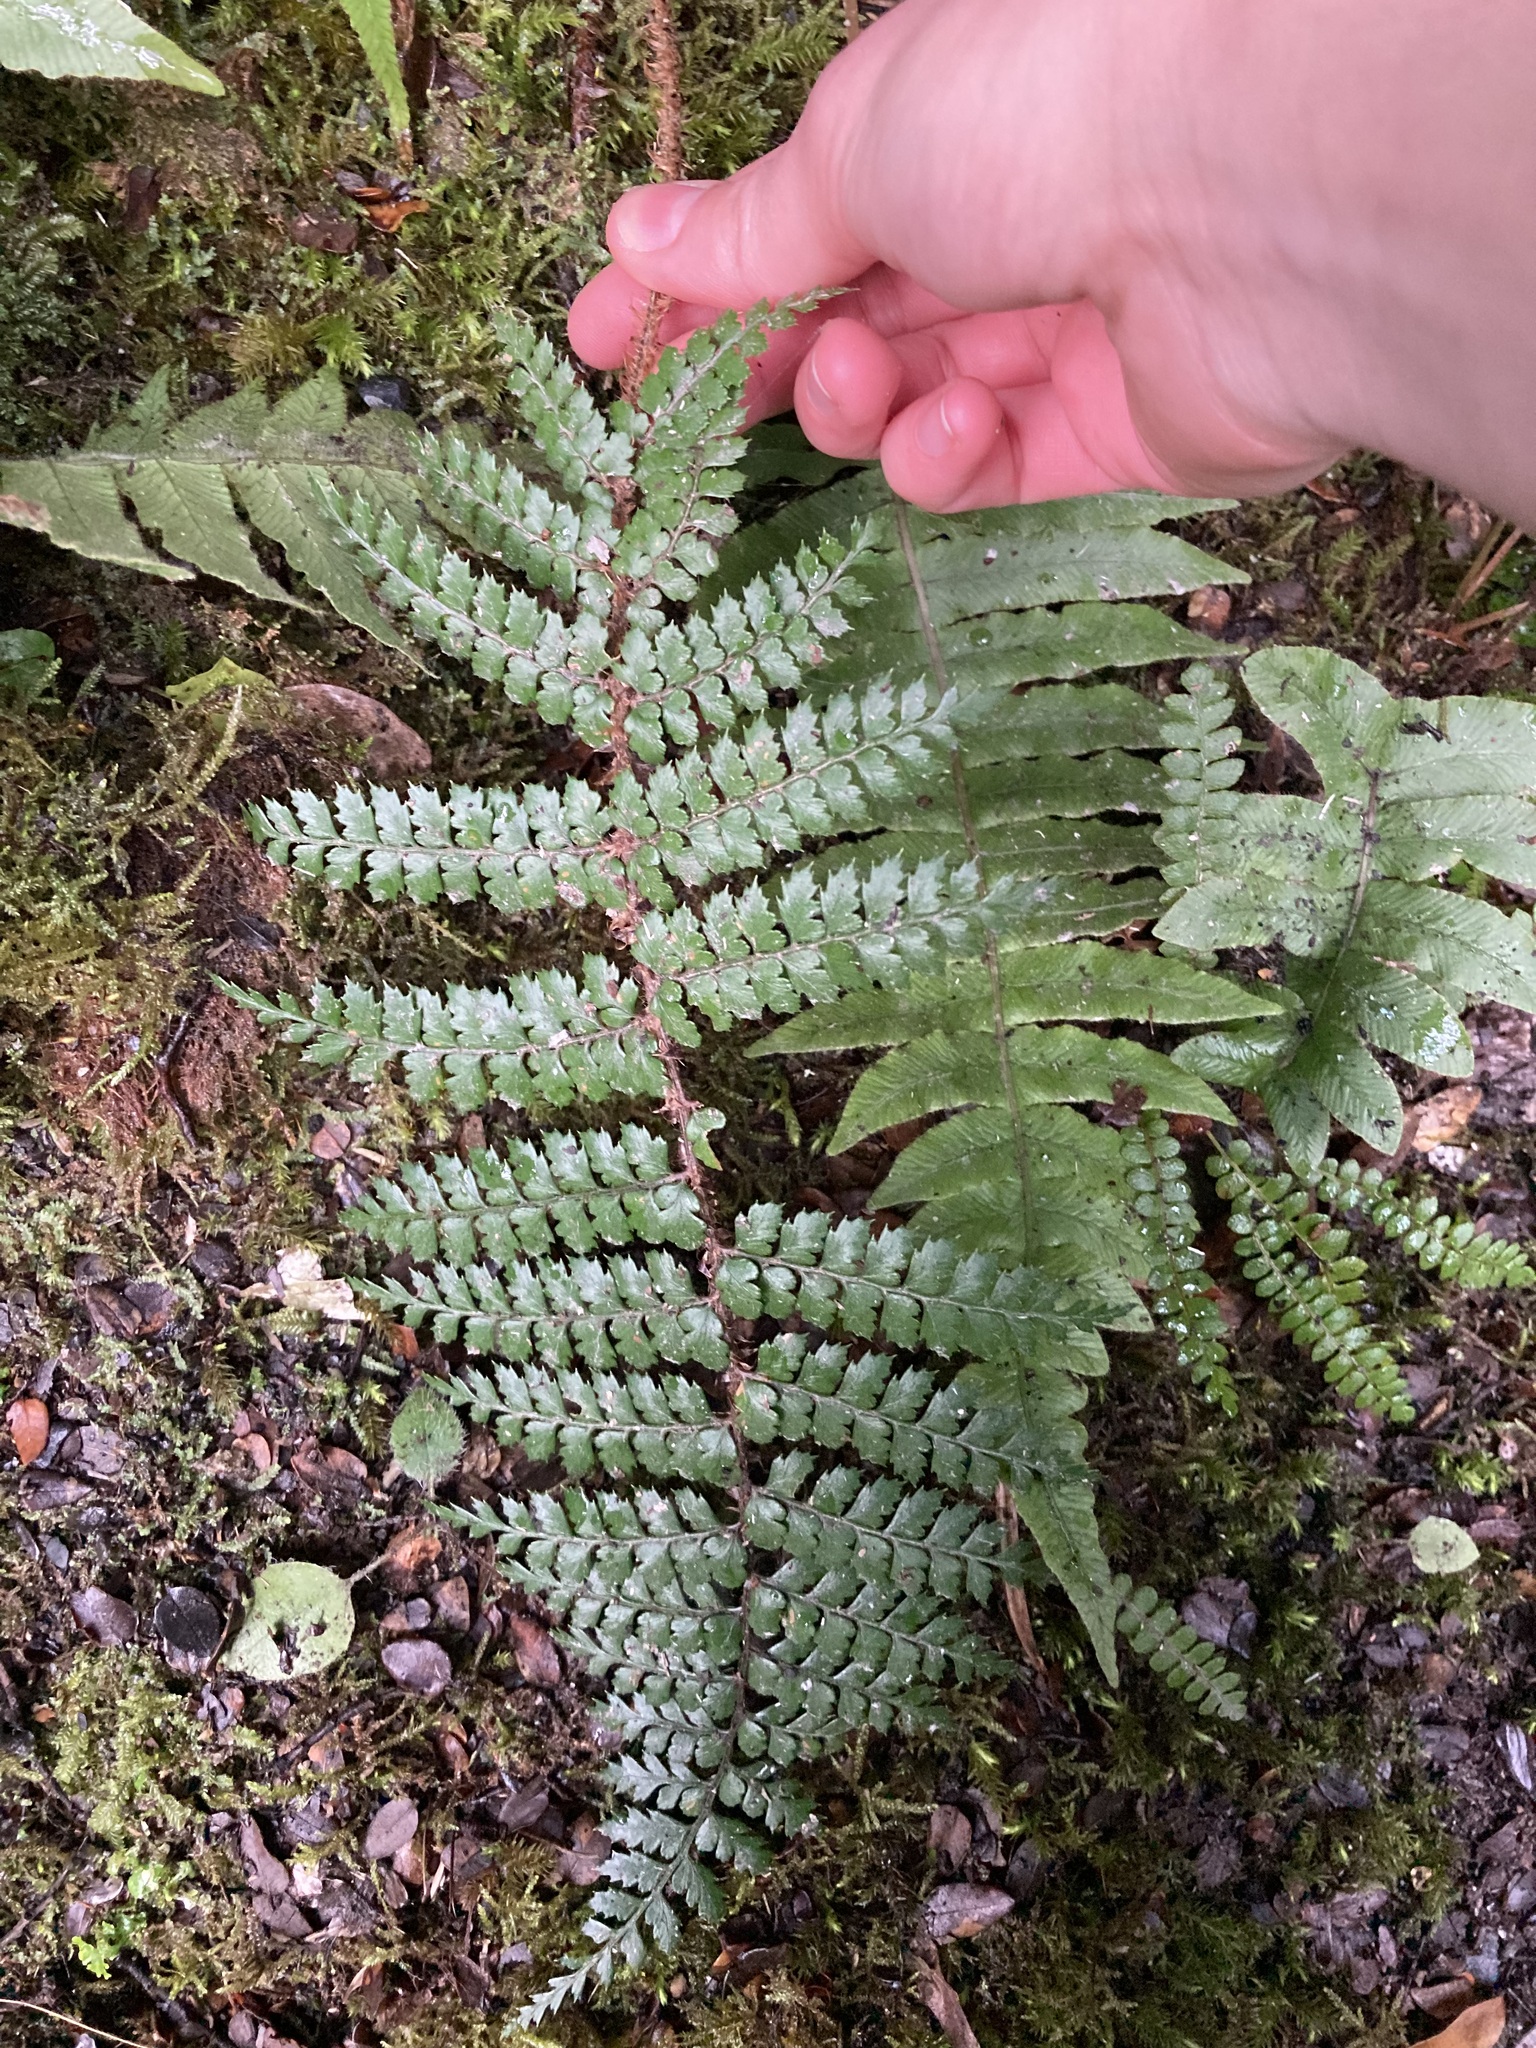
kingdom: Plantae
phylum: Tracheophyta
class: Polypodiopsida
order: Polypodiales
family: Dryopteridaceae
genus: Polystichum
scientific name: Polystichum vestitum
